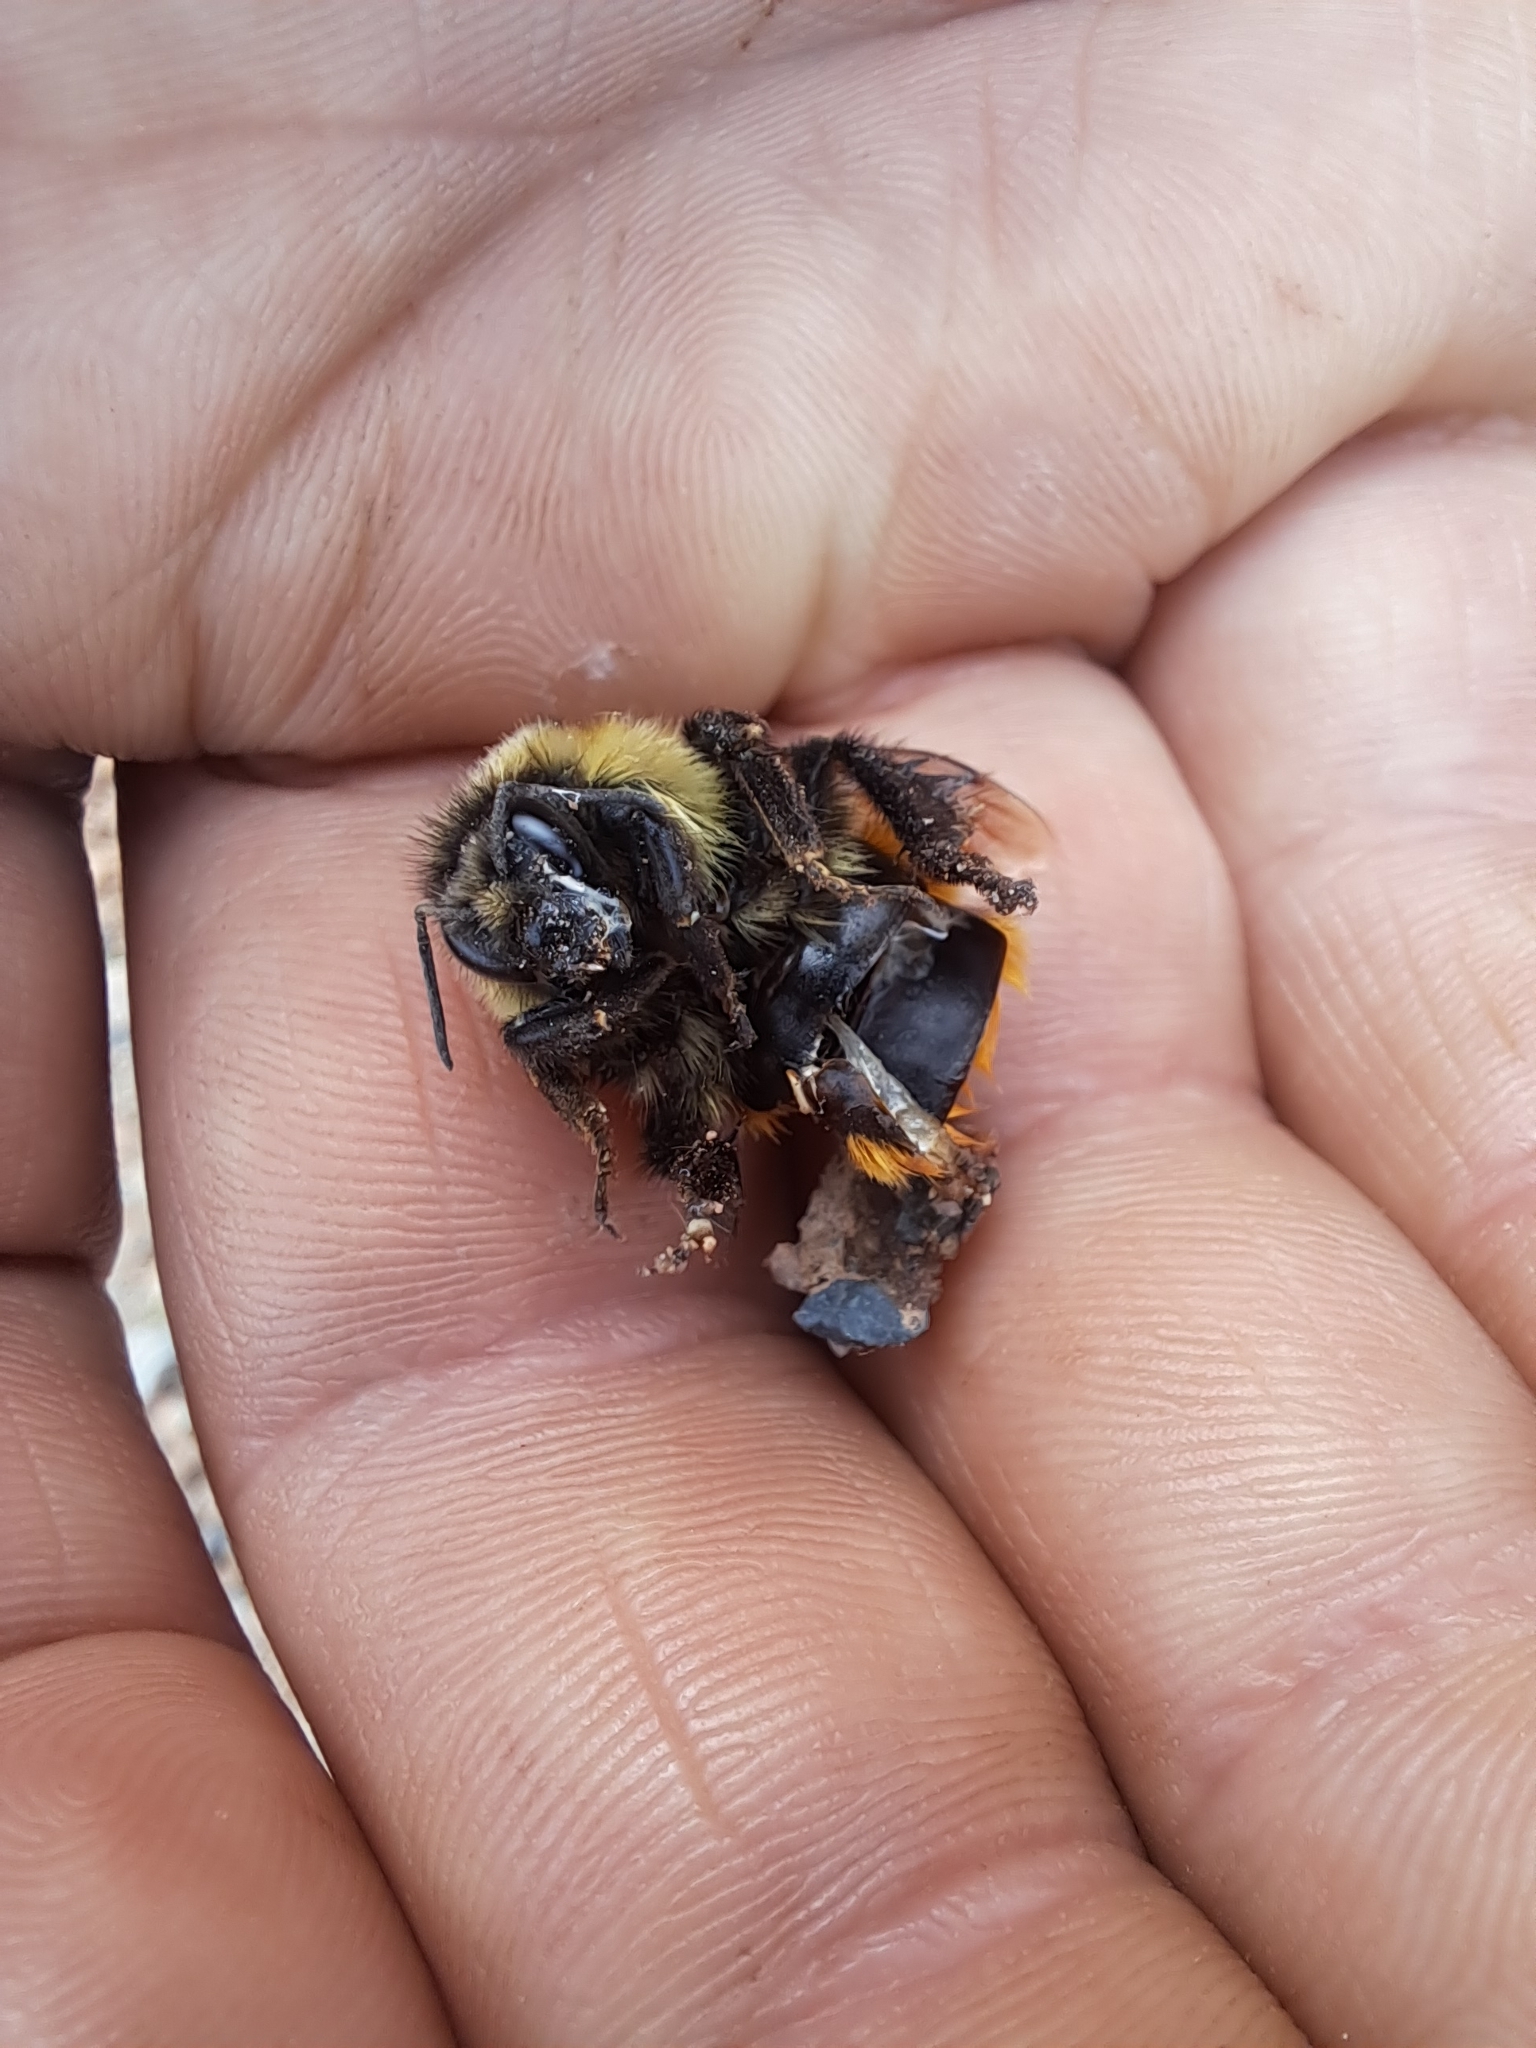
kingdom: Animalia
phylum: Arthropoda
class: Insecta
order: Hymenoptera
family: Apidae
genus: Bombus
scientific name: Bombus ternarius
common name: Tri-colored bumble bee
